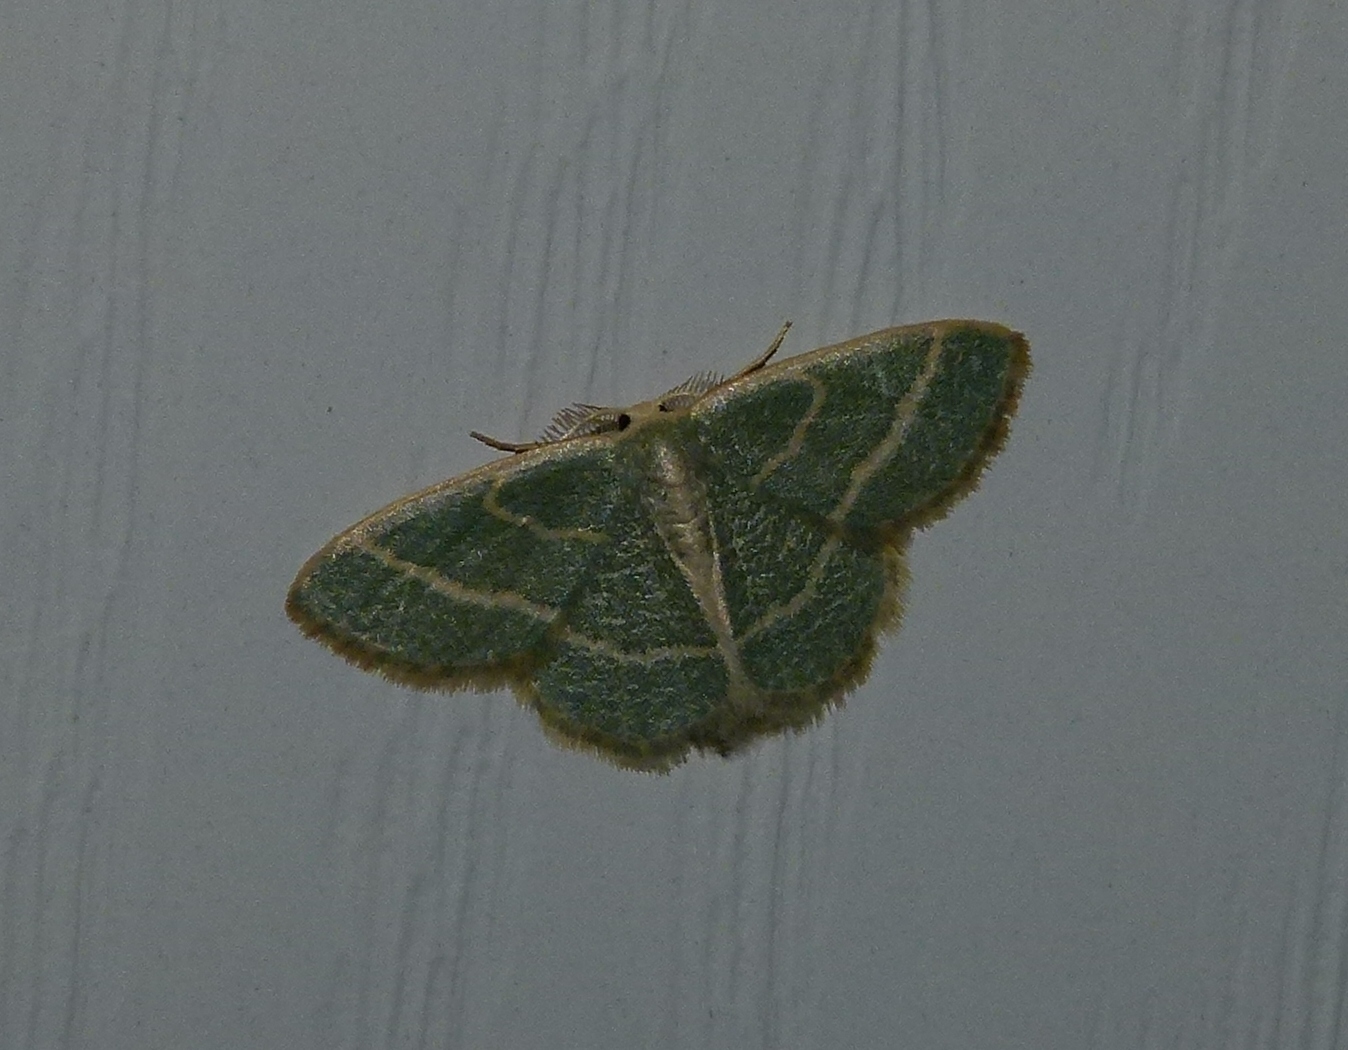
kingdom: Animalia
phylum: Arthropoda
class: Insecta
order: Lepidoptera
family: Geometridae
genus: Chlorochlamys
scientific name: Chlorochlamys chloroleucaria
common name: Blackberry looper
